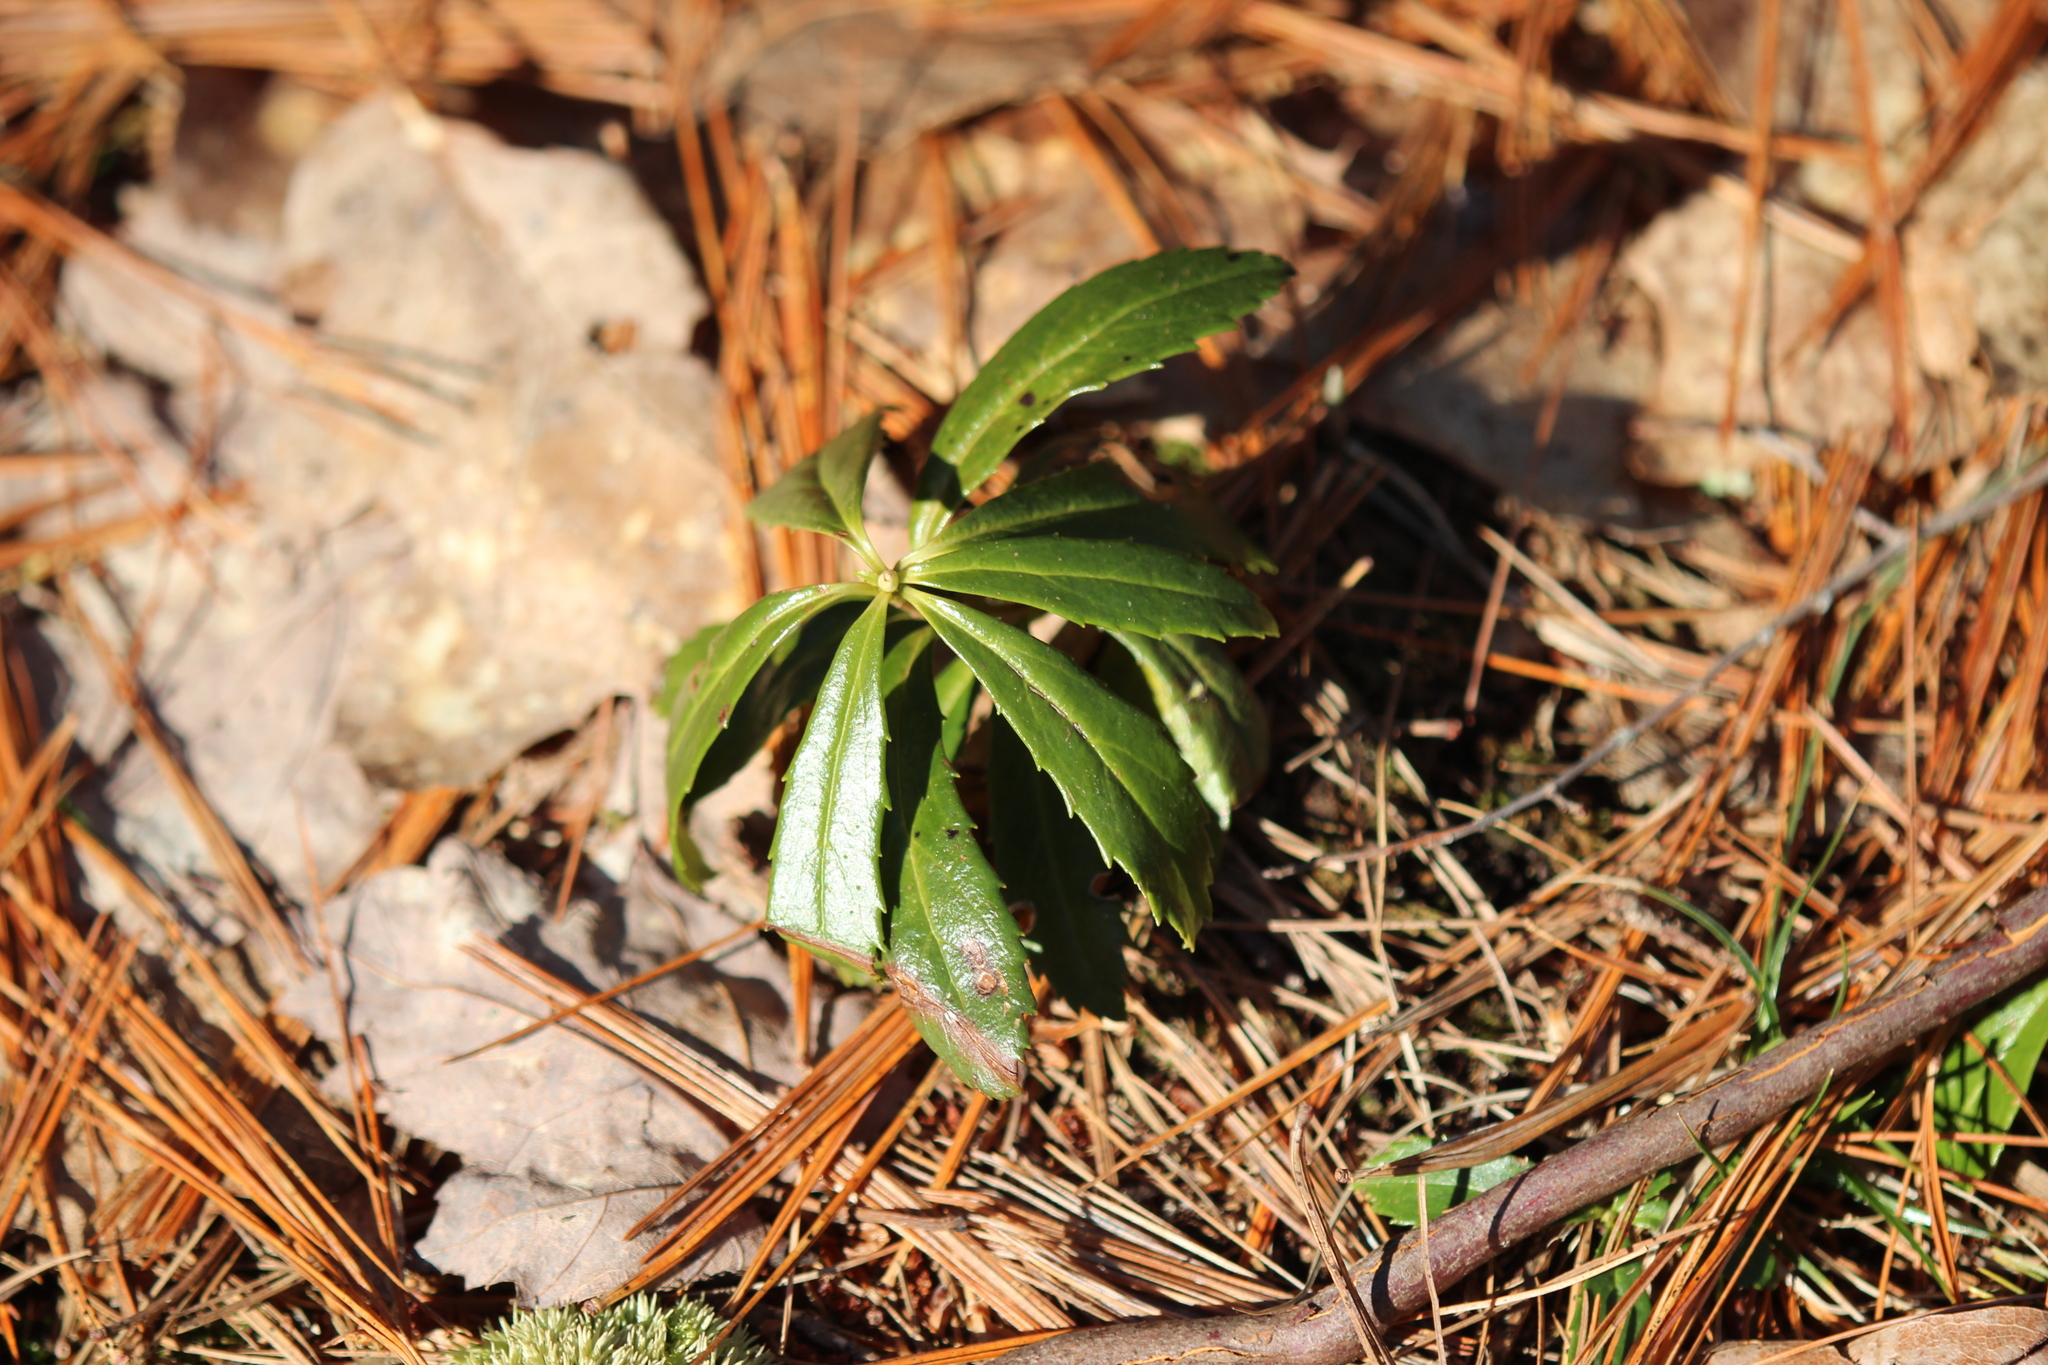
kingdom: Plantae
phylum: Tracheophyta
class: Magnoliopsida
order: Ericales
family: Ericaceae
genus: Chimaphila
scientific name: Chimaphila umbellata
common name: Pipsissewa
